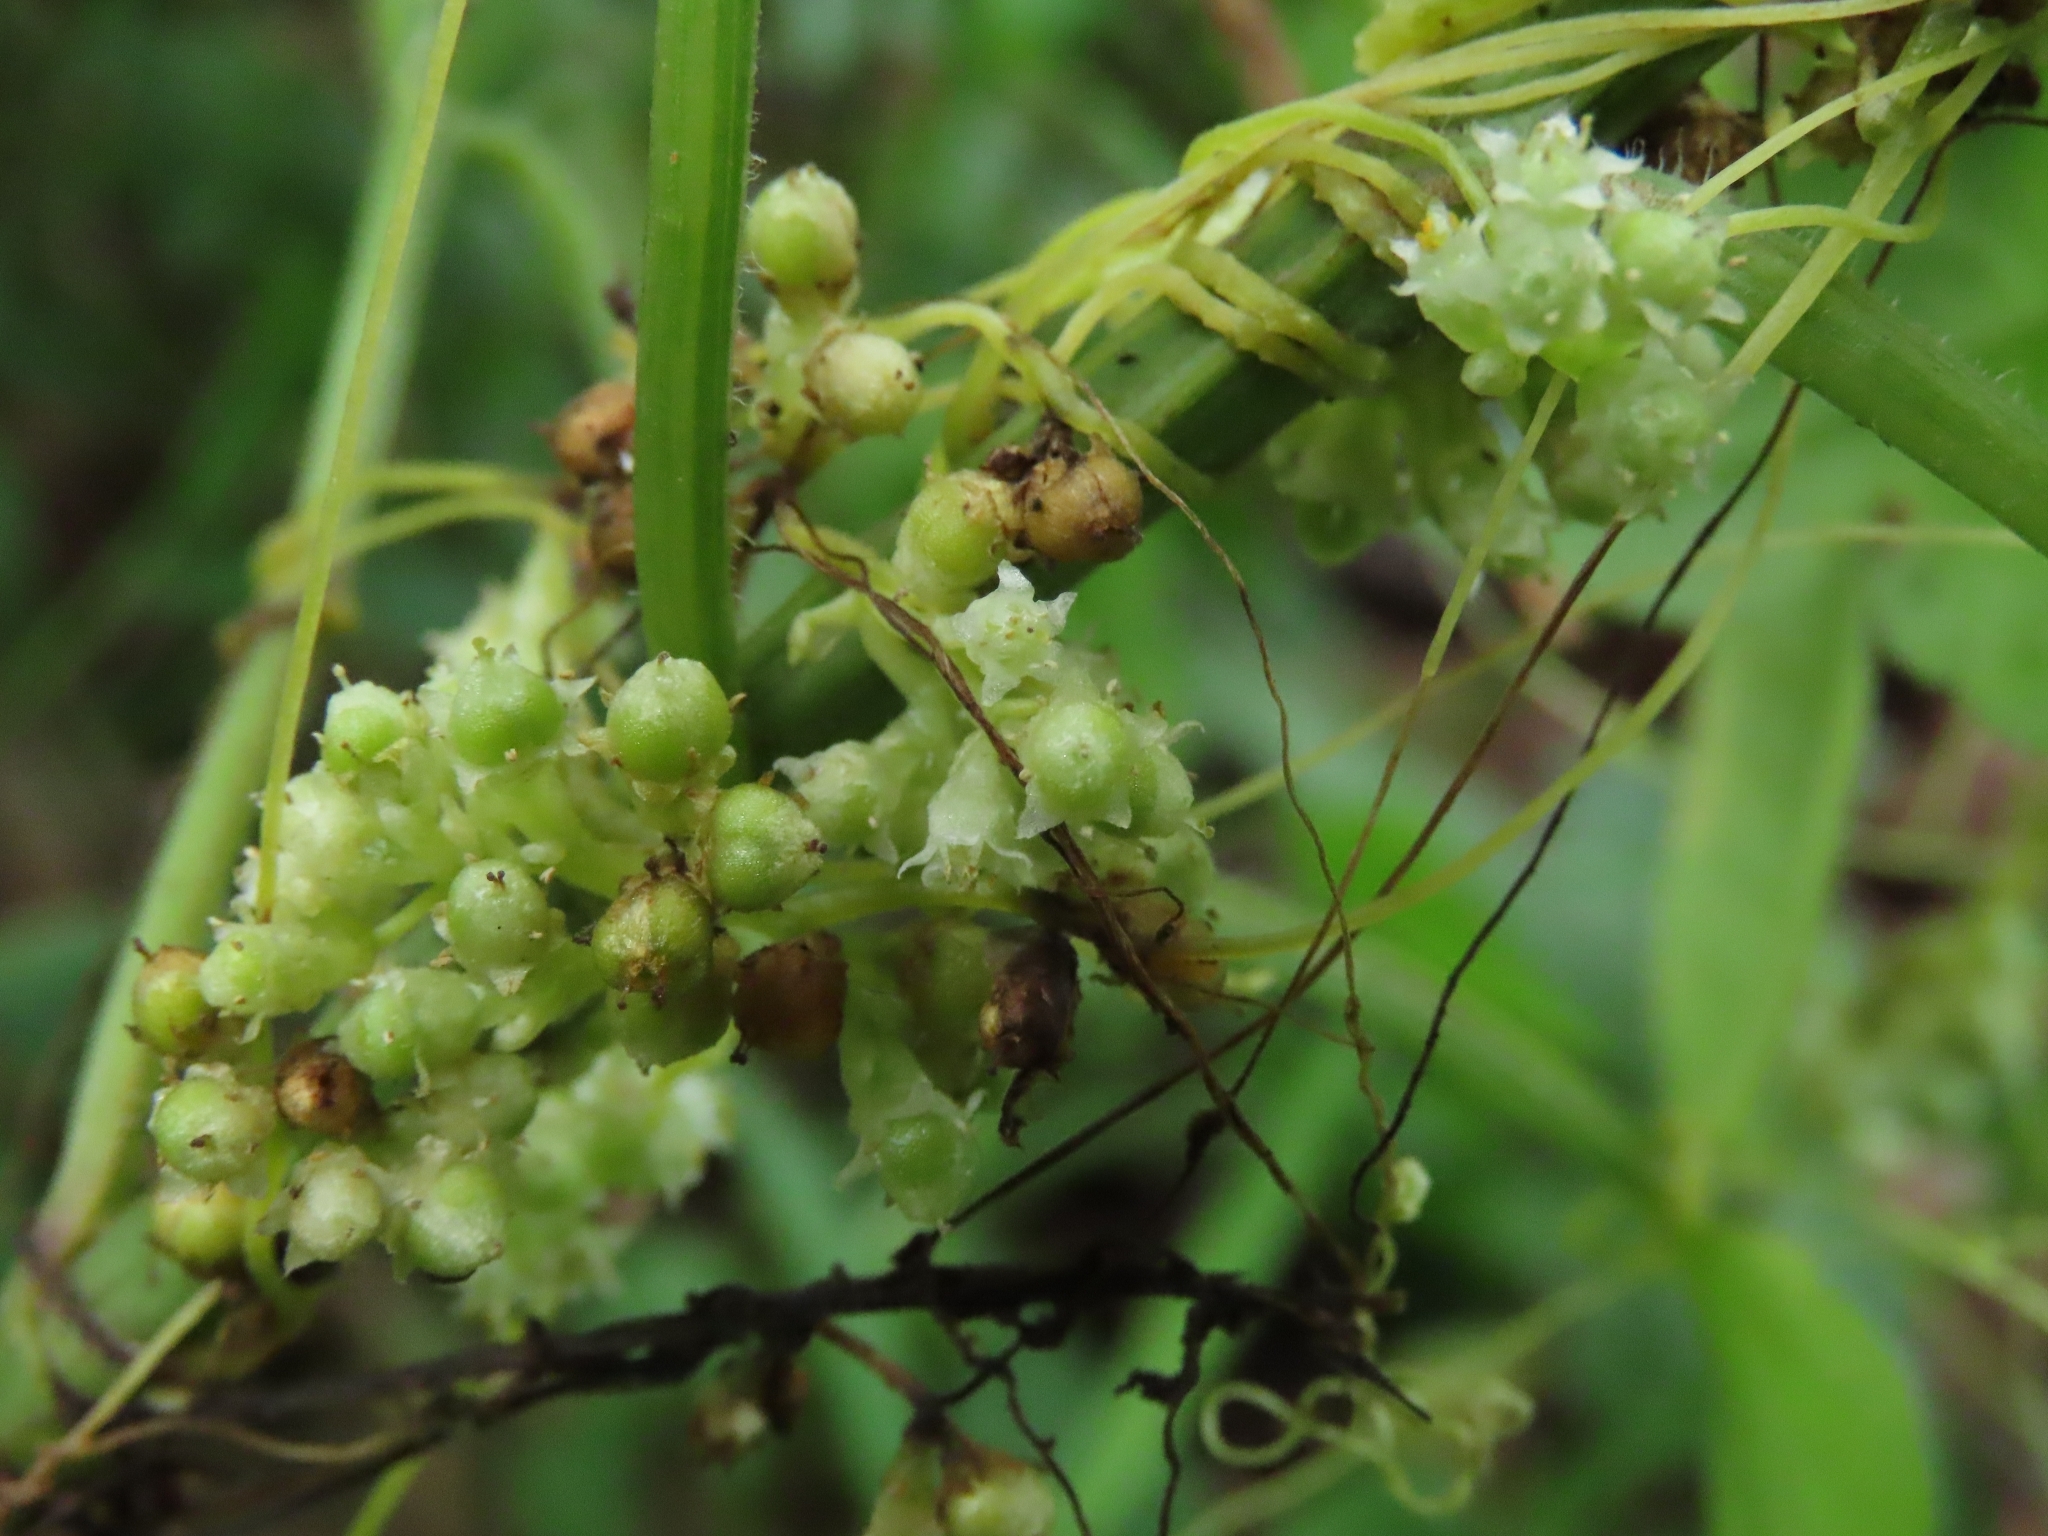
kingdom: Plantae
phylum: Tracheophyta
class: Magnoliopsida
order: Solanales
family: Convolvulaceae
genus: Cuscuta
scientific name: Cuscuta campestris
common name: Yellow dodder
